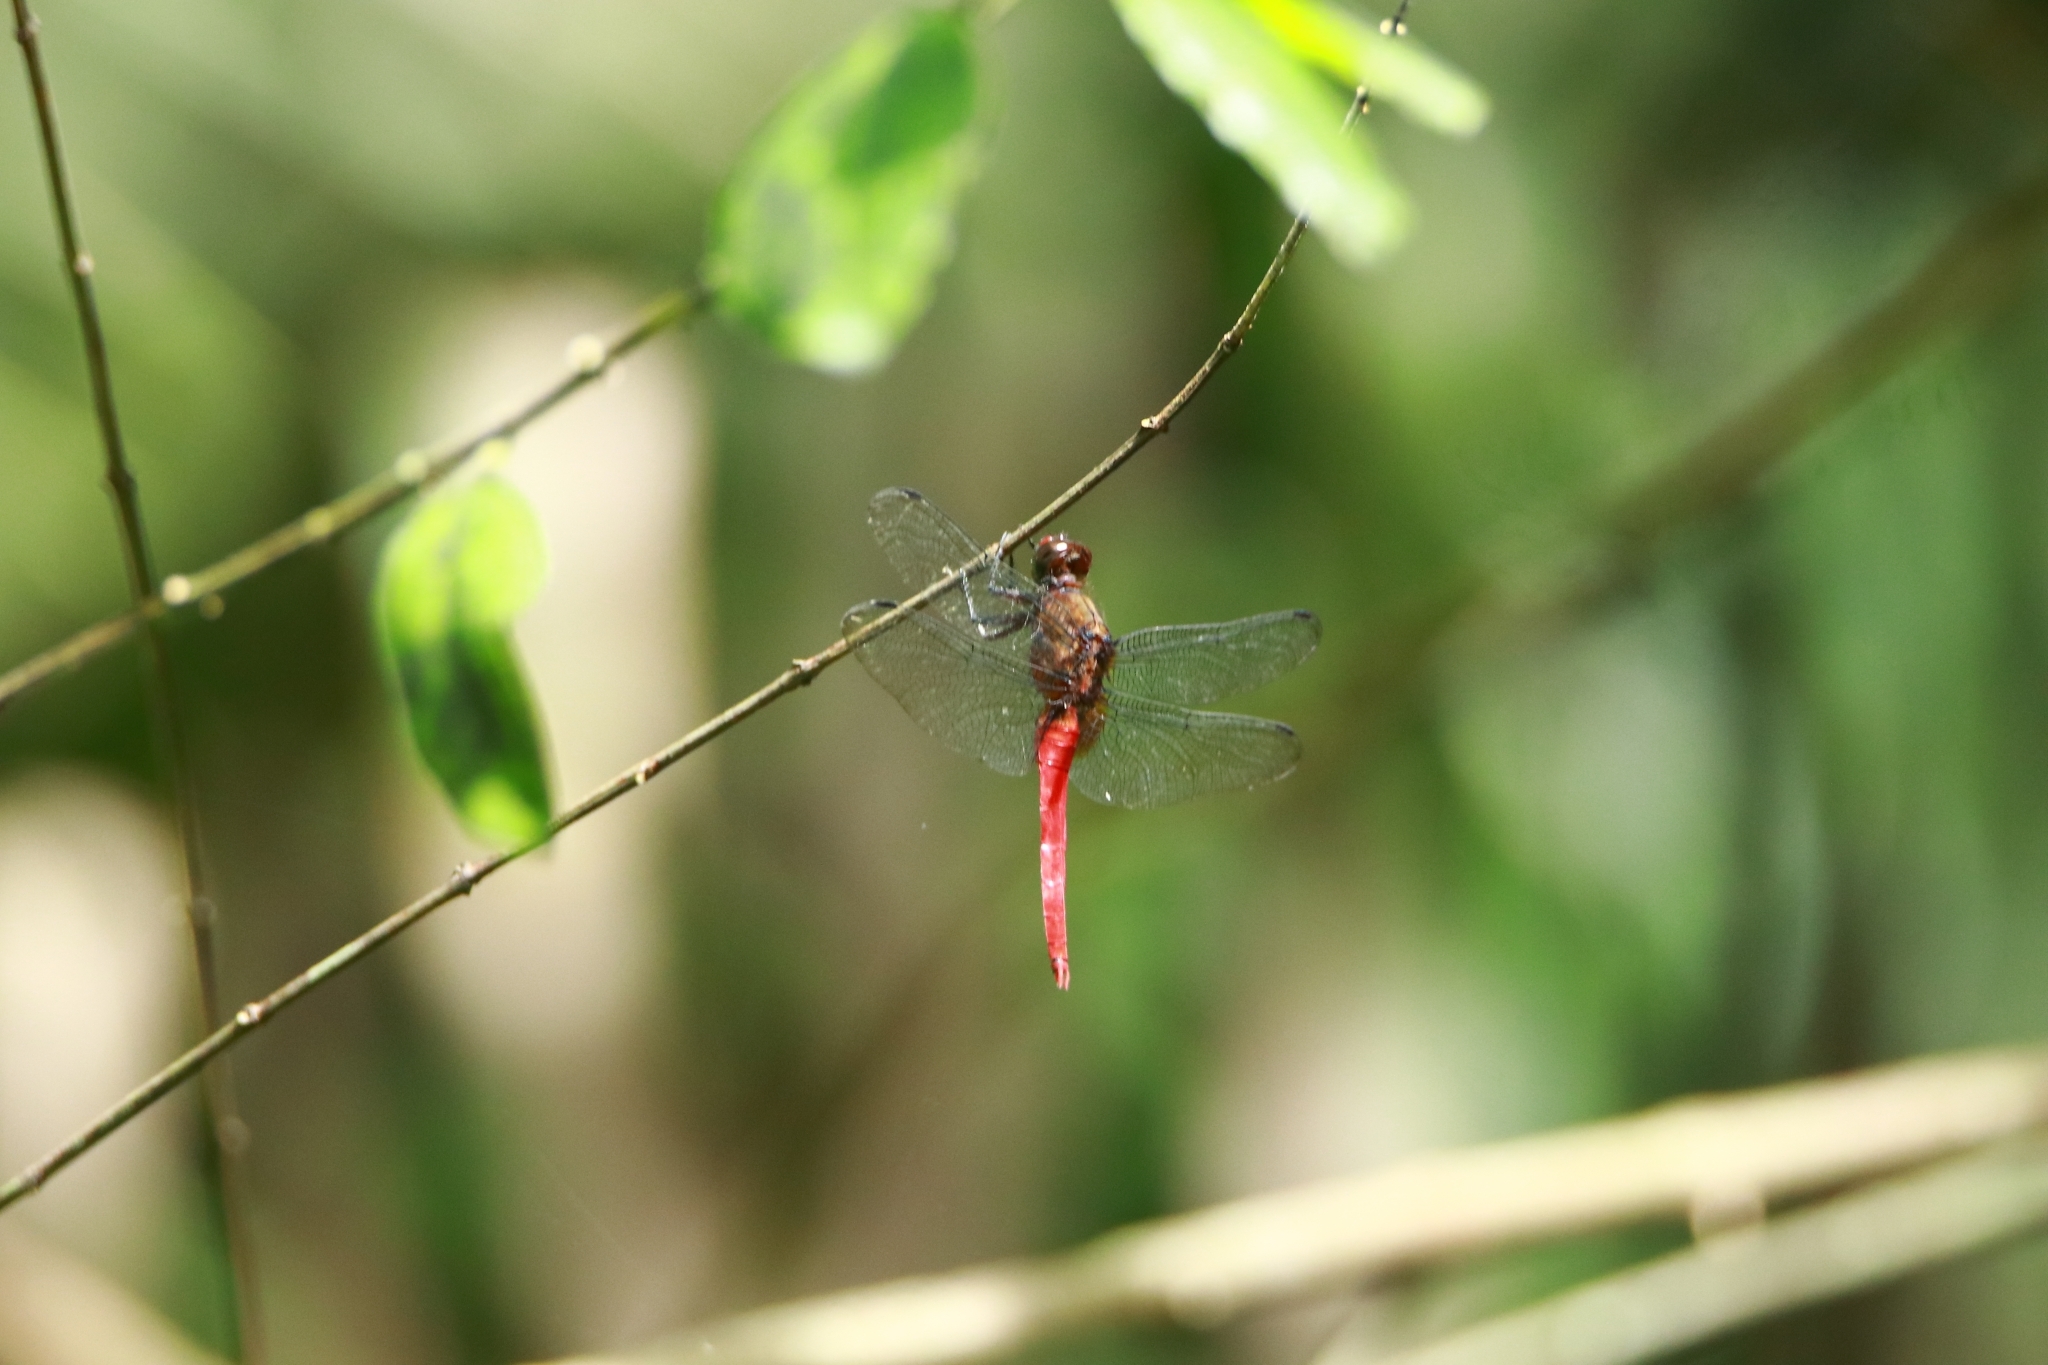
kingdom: Animalia
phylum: Arthropoda
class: Insecta
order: Odonata
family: Libellulidae
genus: Orthetrum
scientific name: Orthetrum chrysis
